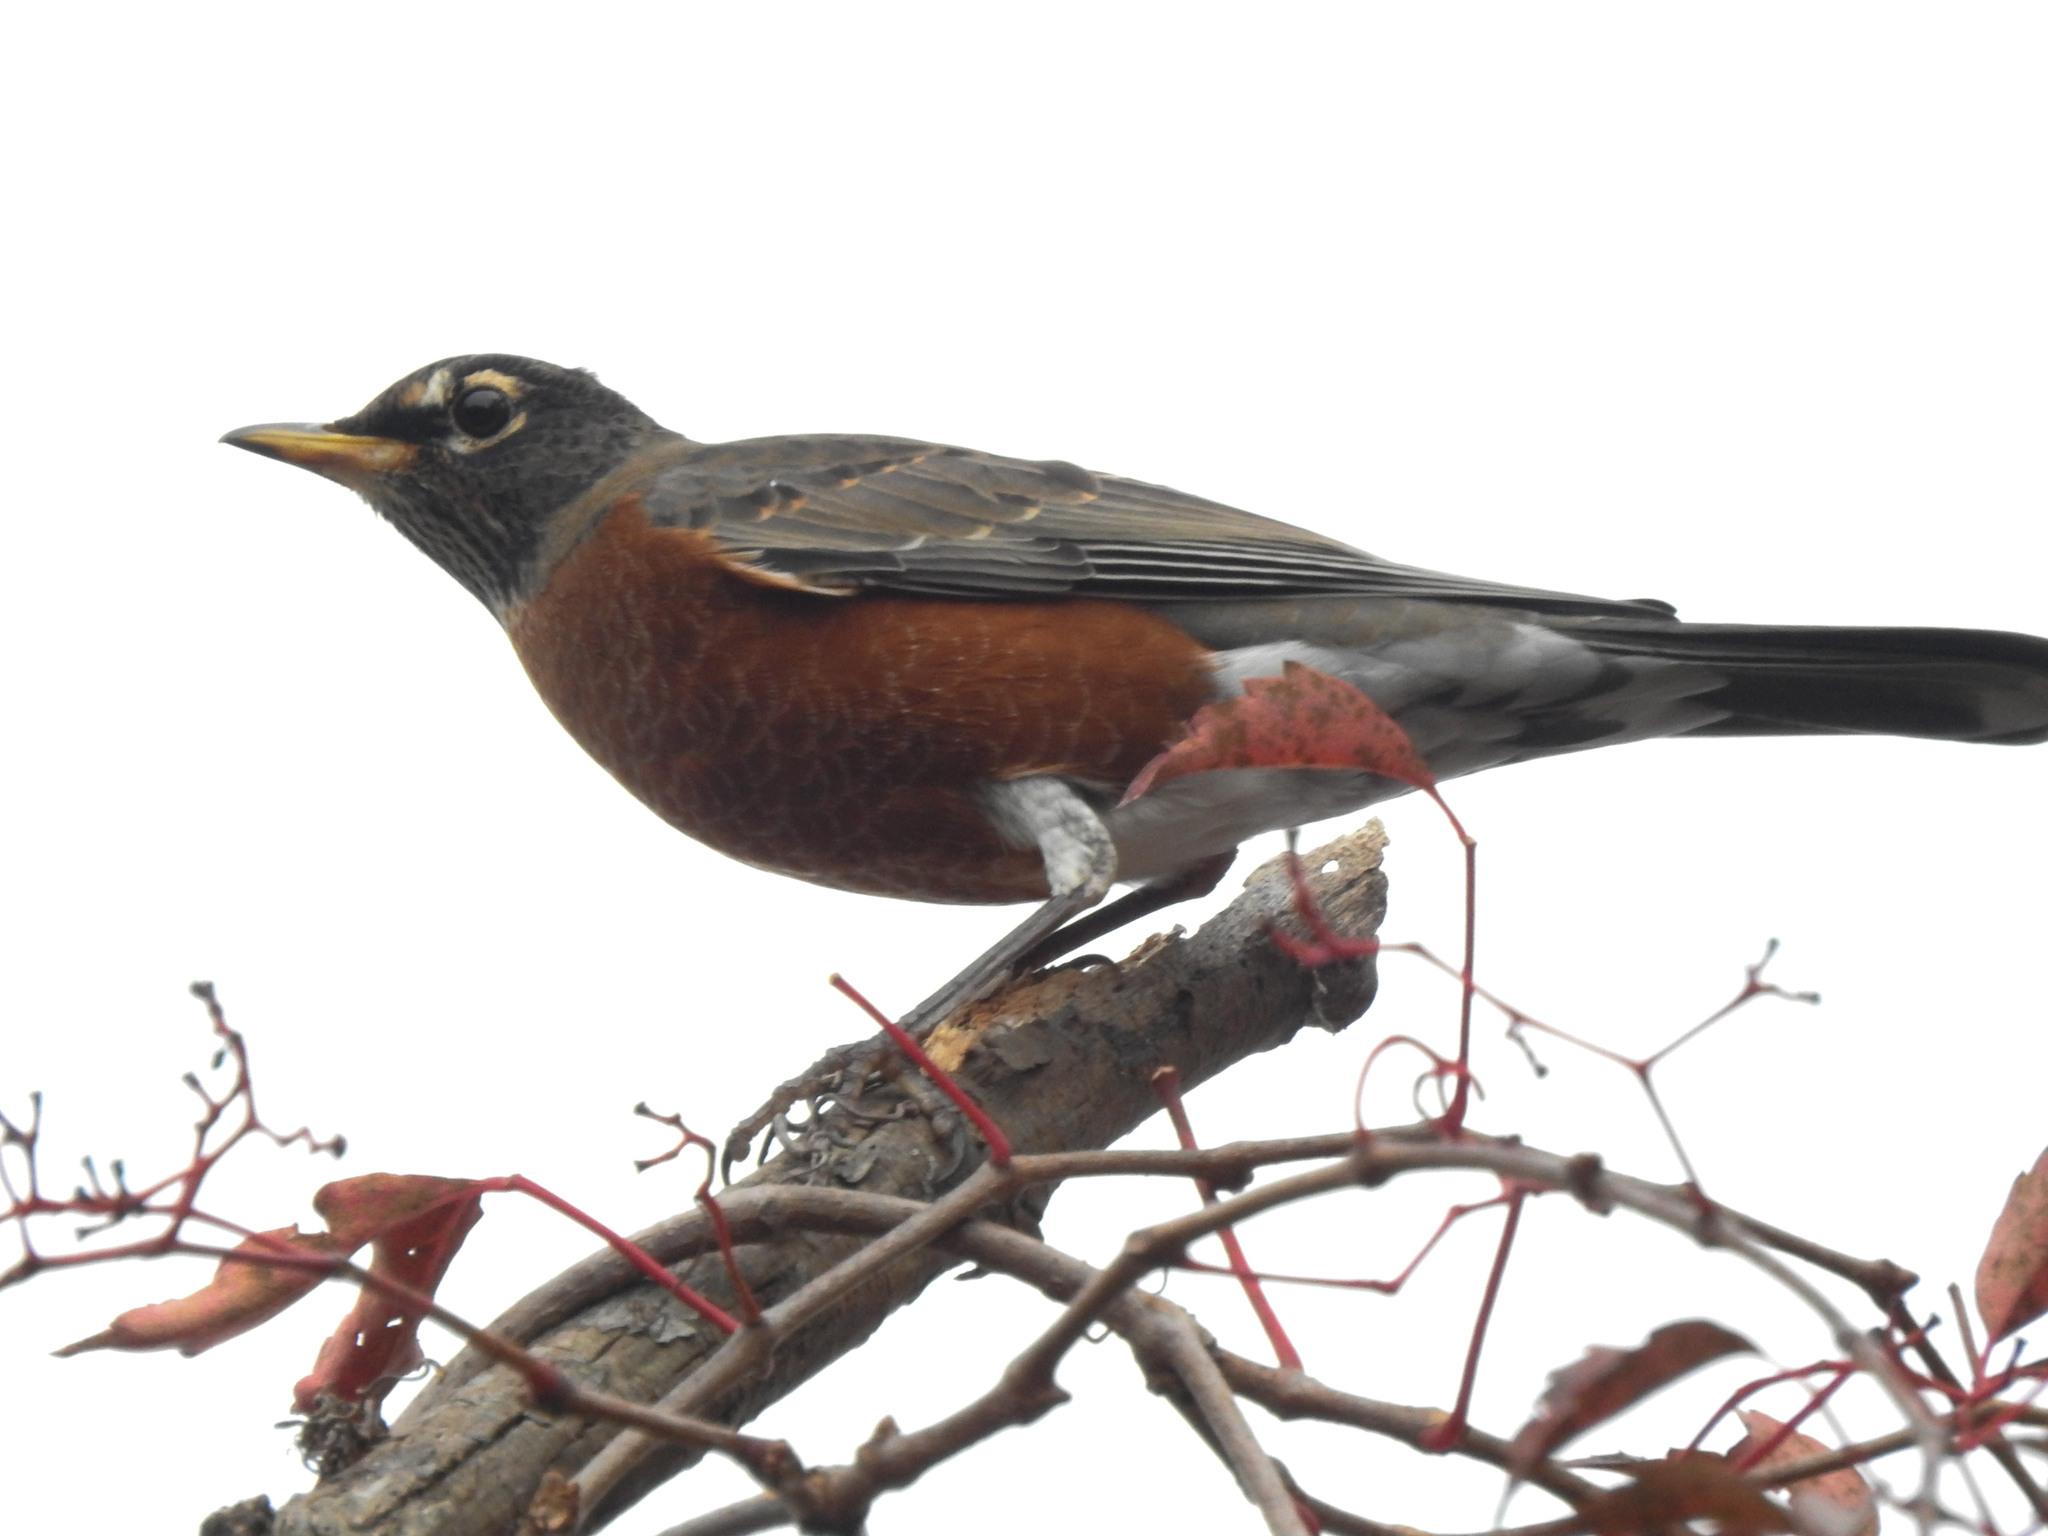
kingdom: Animalia
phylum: Chordata
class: Aves
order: Passeriformes
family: Turdidae
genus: Turdus
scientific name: Turdus migratorius
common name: American robin
